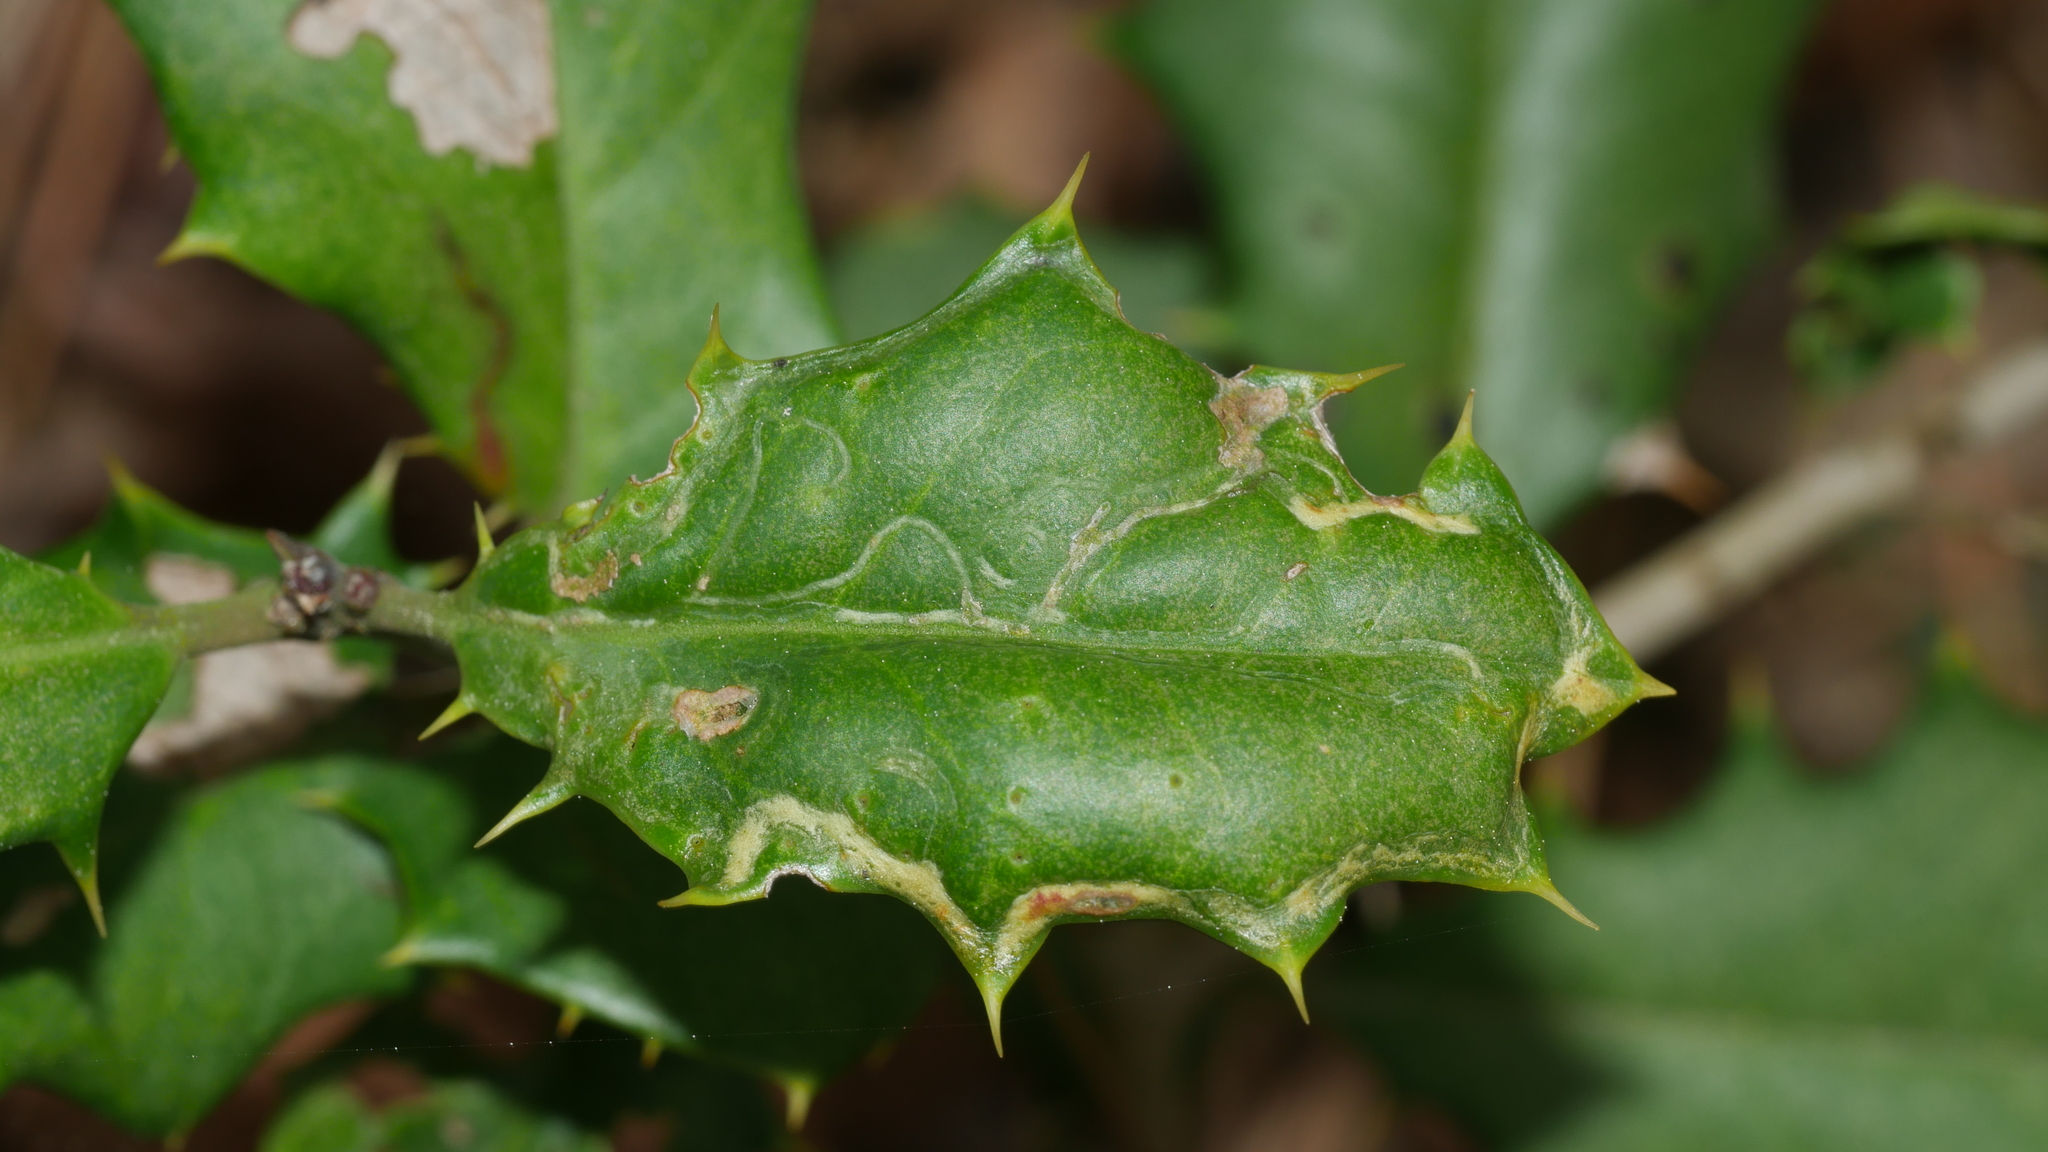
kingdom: Animalia
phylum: Arthropoda
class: Insecta
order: Diptera
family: Agromyzidae
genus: Phytomyza
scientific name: Phytomyza opacae
